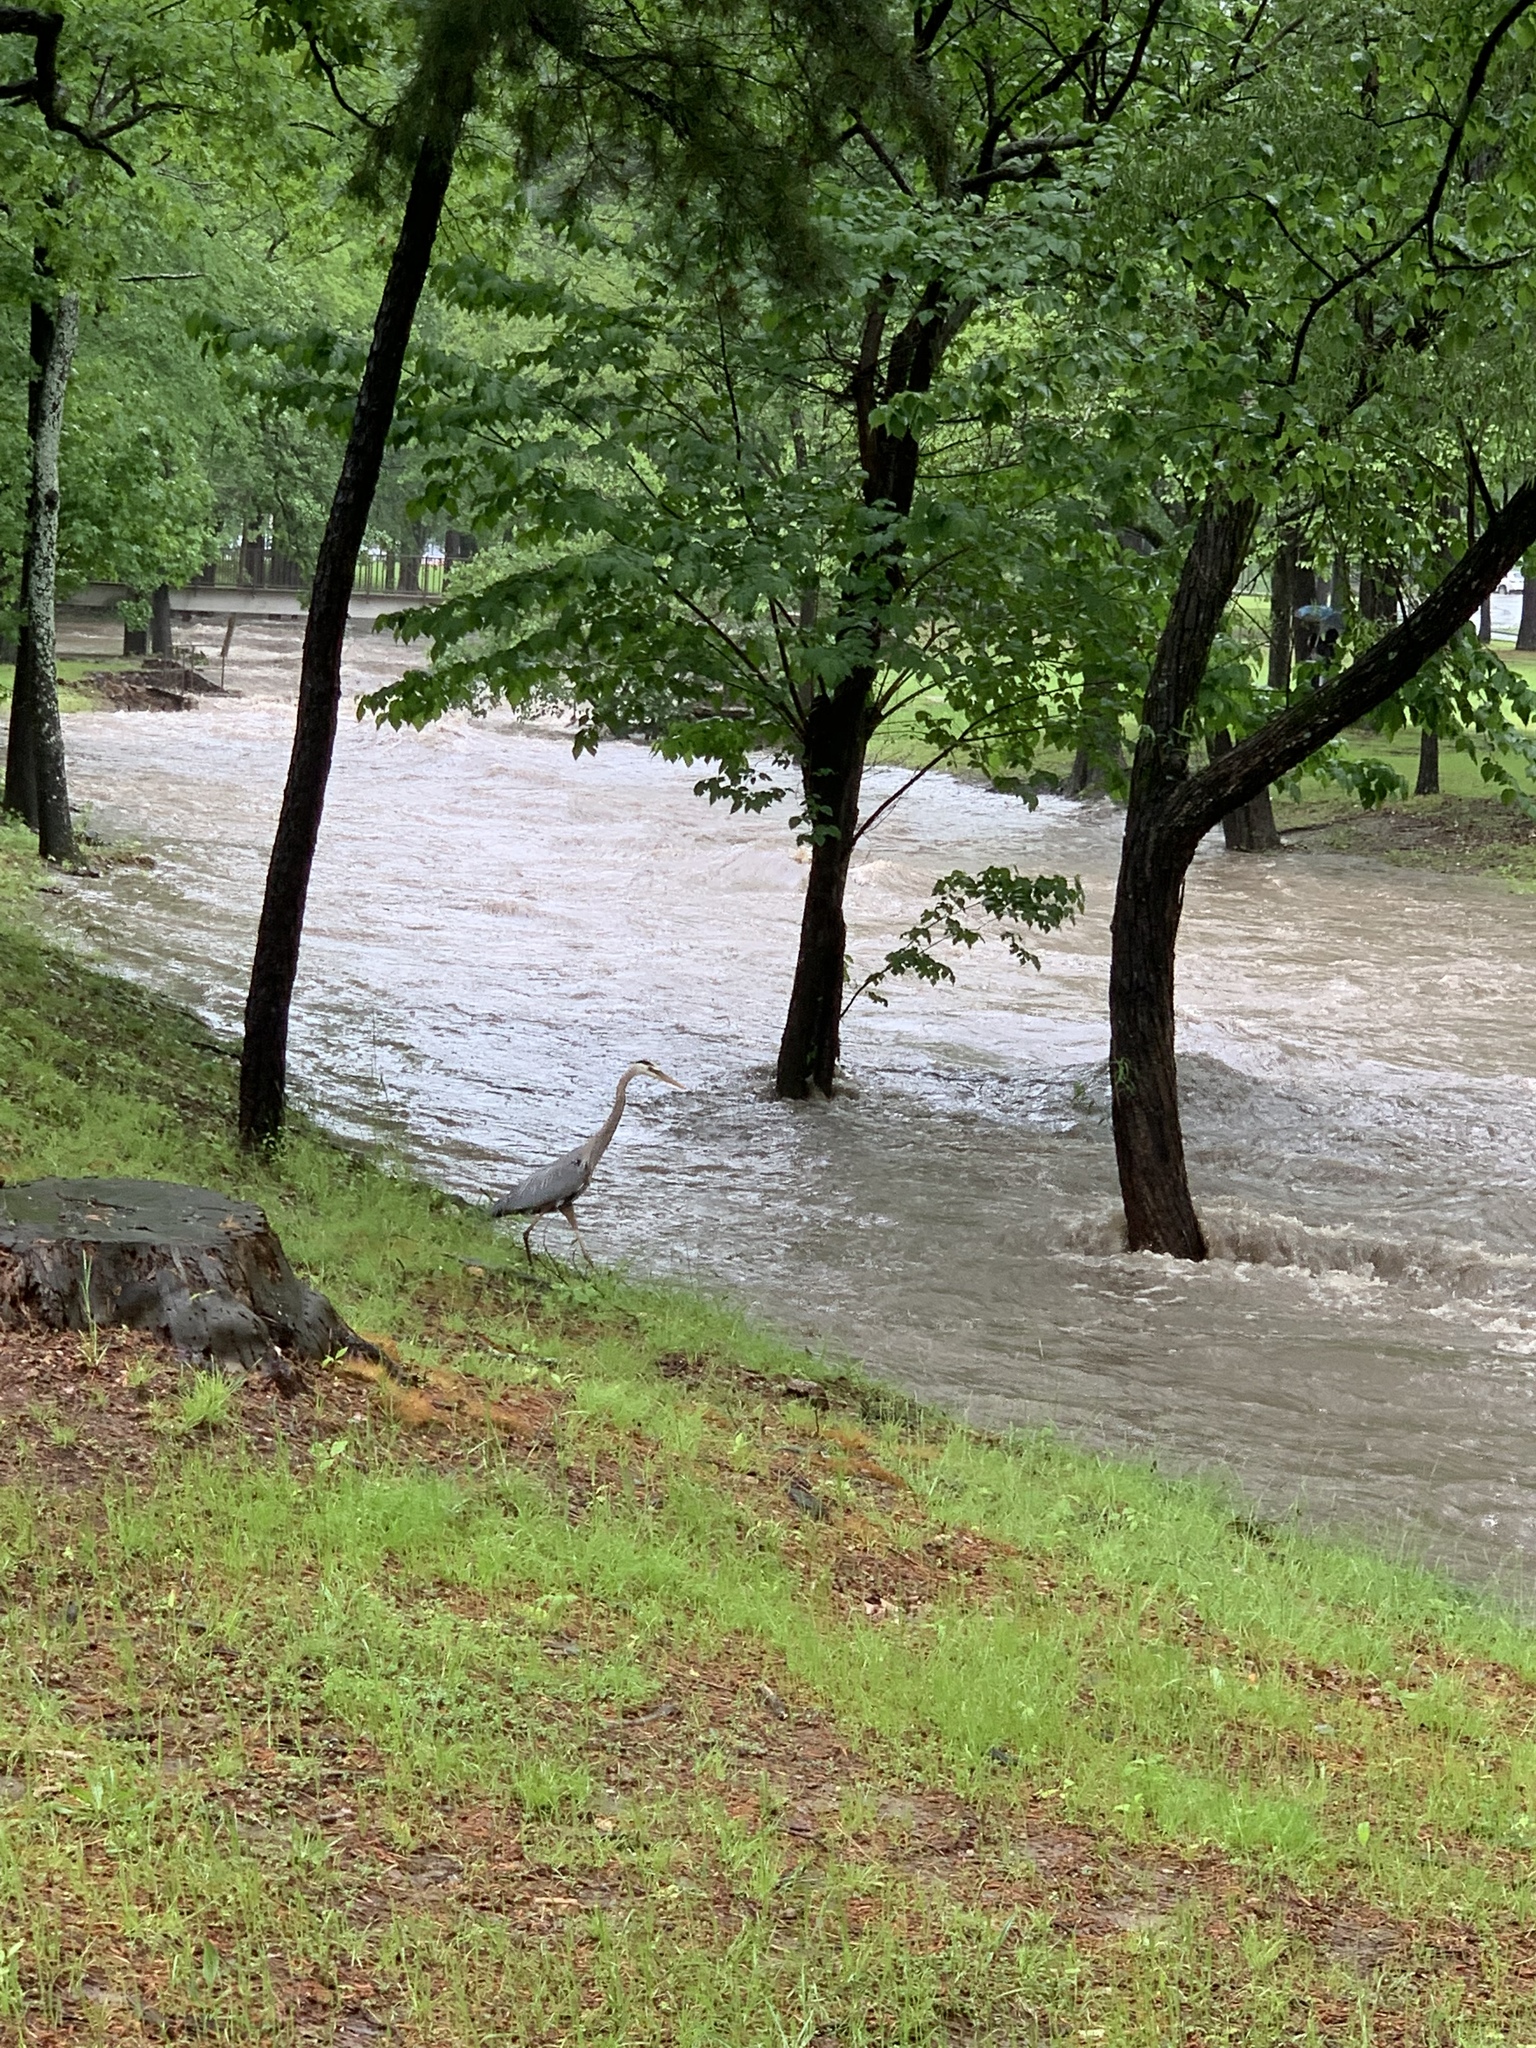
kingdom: Animalia
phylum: Chordata
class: Aves
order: Pelecaniformes
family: Ardeidae
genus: Ardea
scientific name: Ardea herodias
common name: Great blue heron
